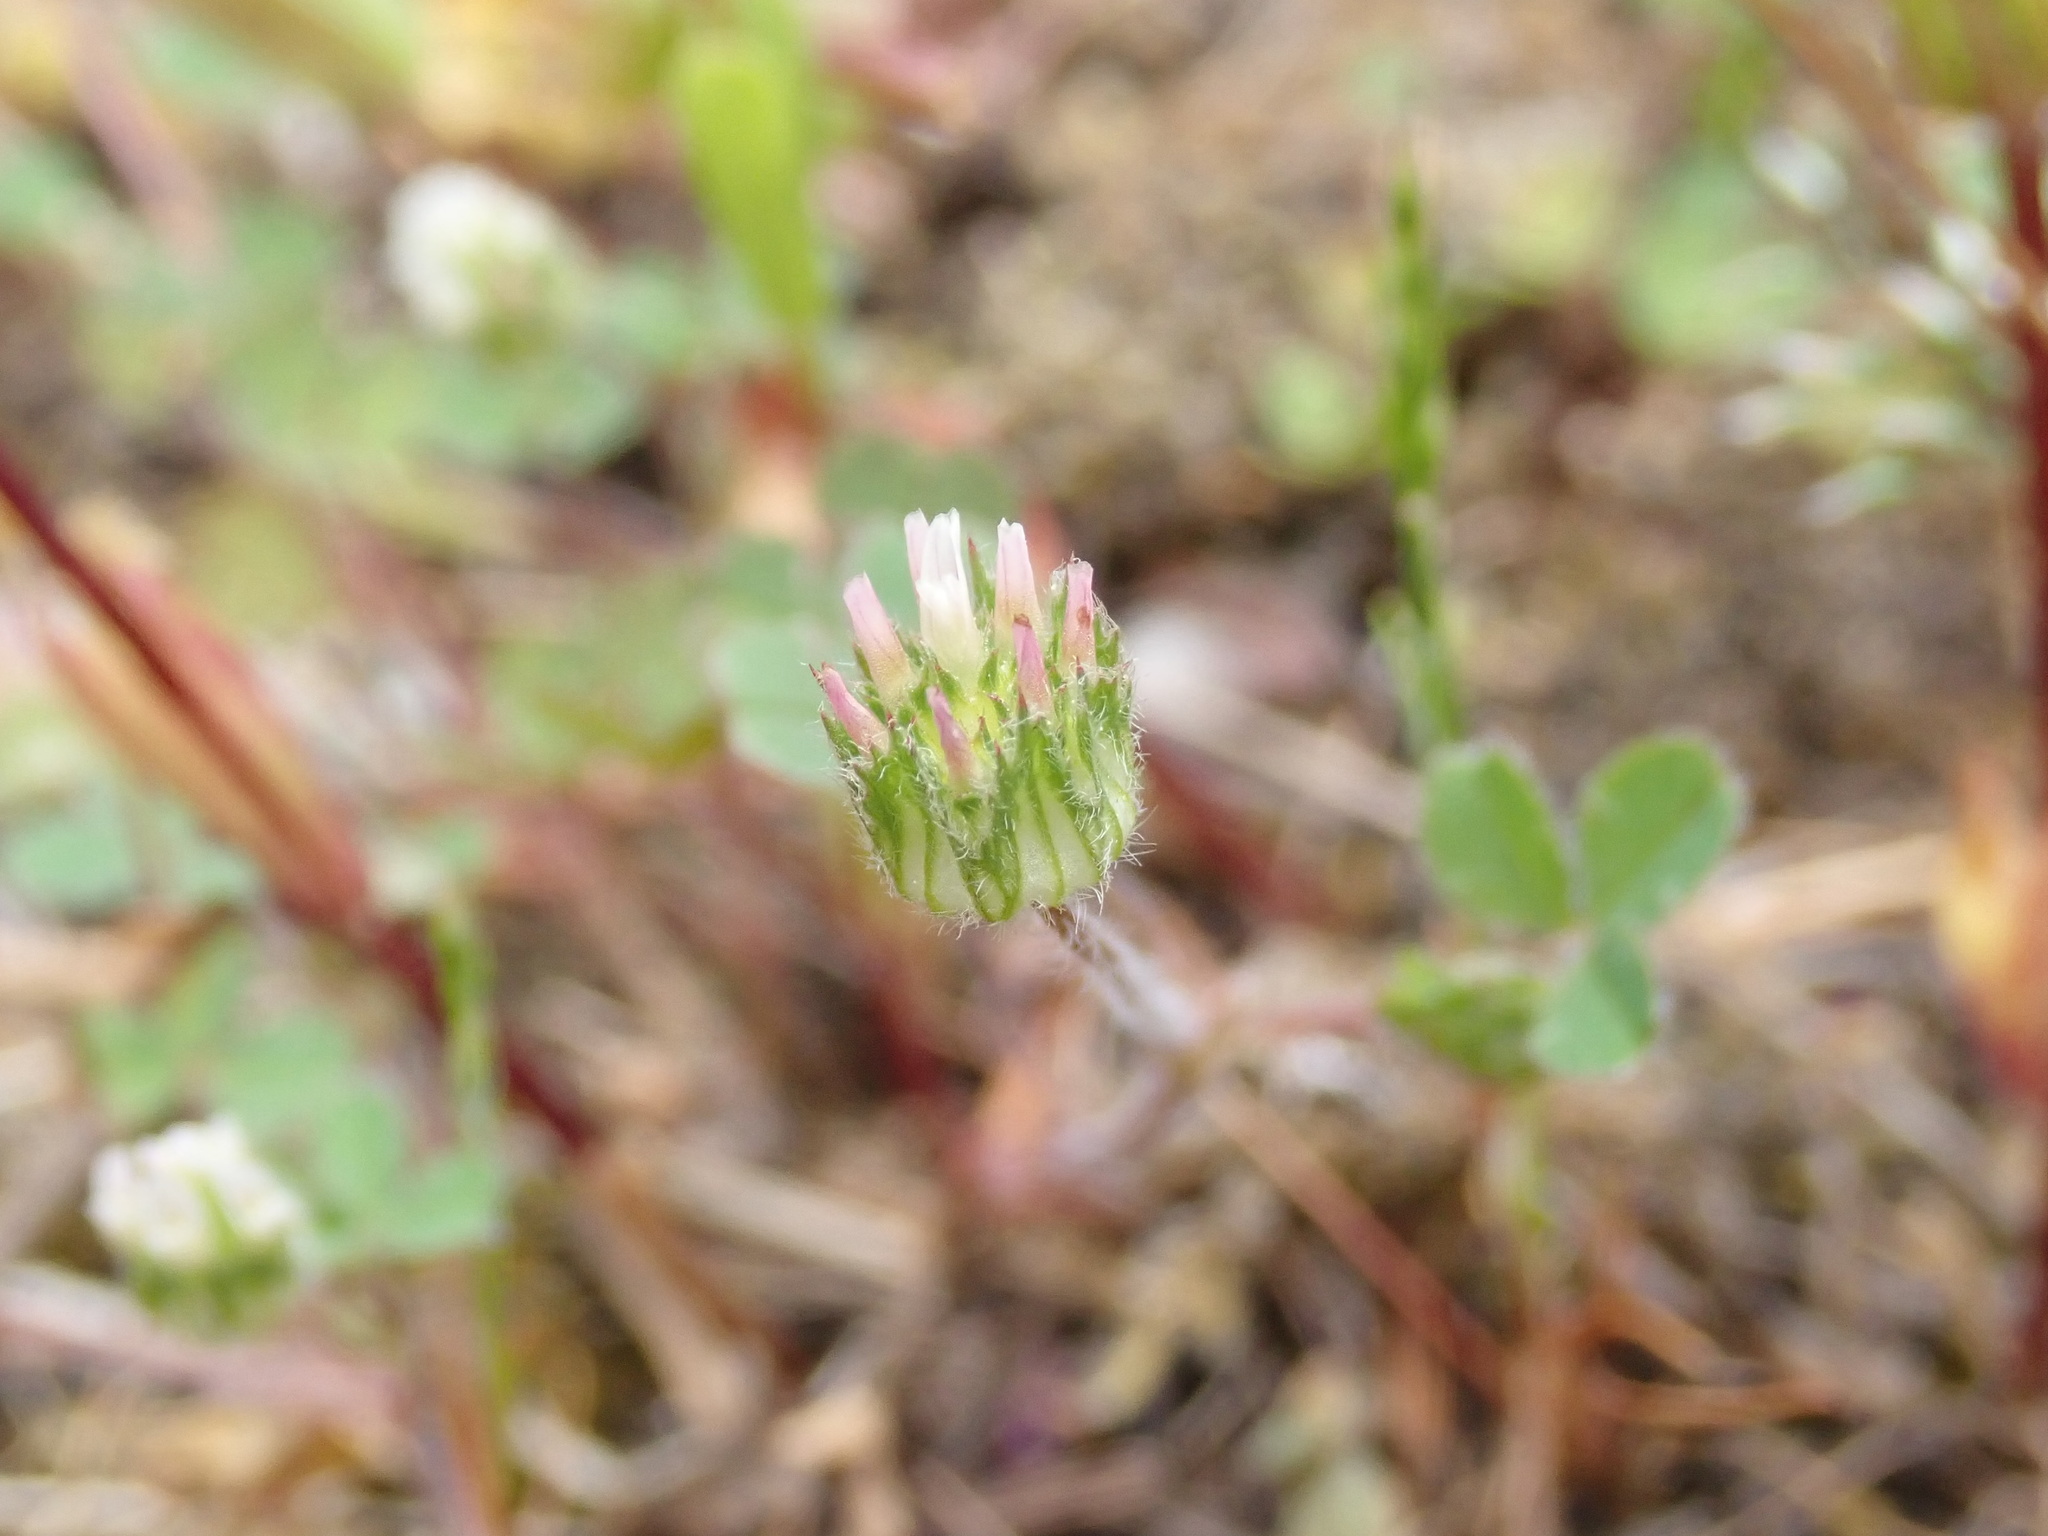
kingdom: Plantae
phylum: Tracheophyta
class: Magnoliopsida
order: Fabales
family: Fabaceae
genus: Trifolium
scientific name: Trifolium microdon
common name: Thimble clover
